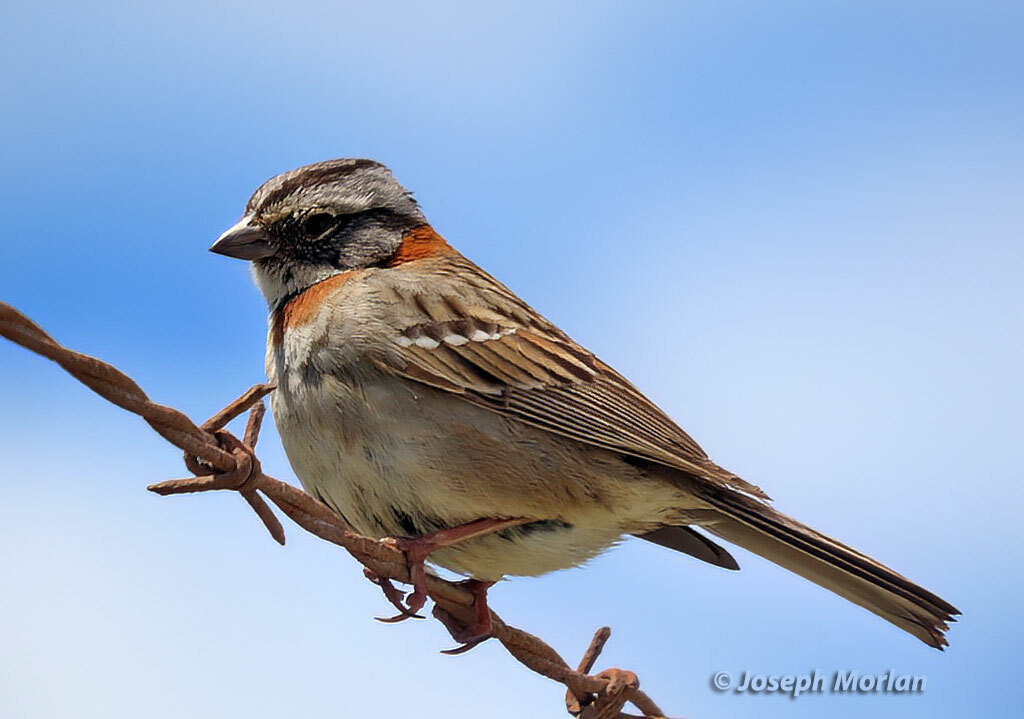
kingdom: Animalia
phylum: Chordata
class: Aves
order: Passeriformes
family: Passerellidae
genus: Zonotrichia
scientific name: Zonotrichia capensis
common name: Rufous-collared sparrow
